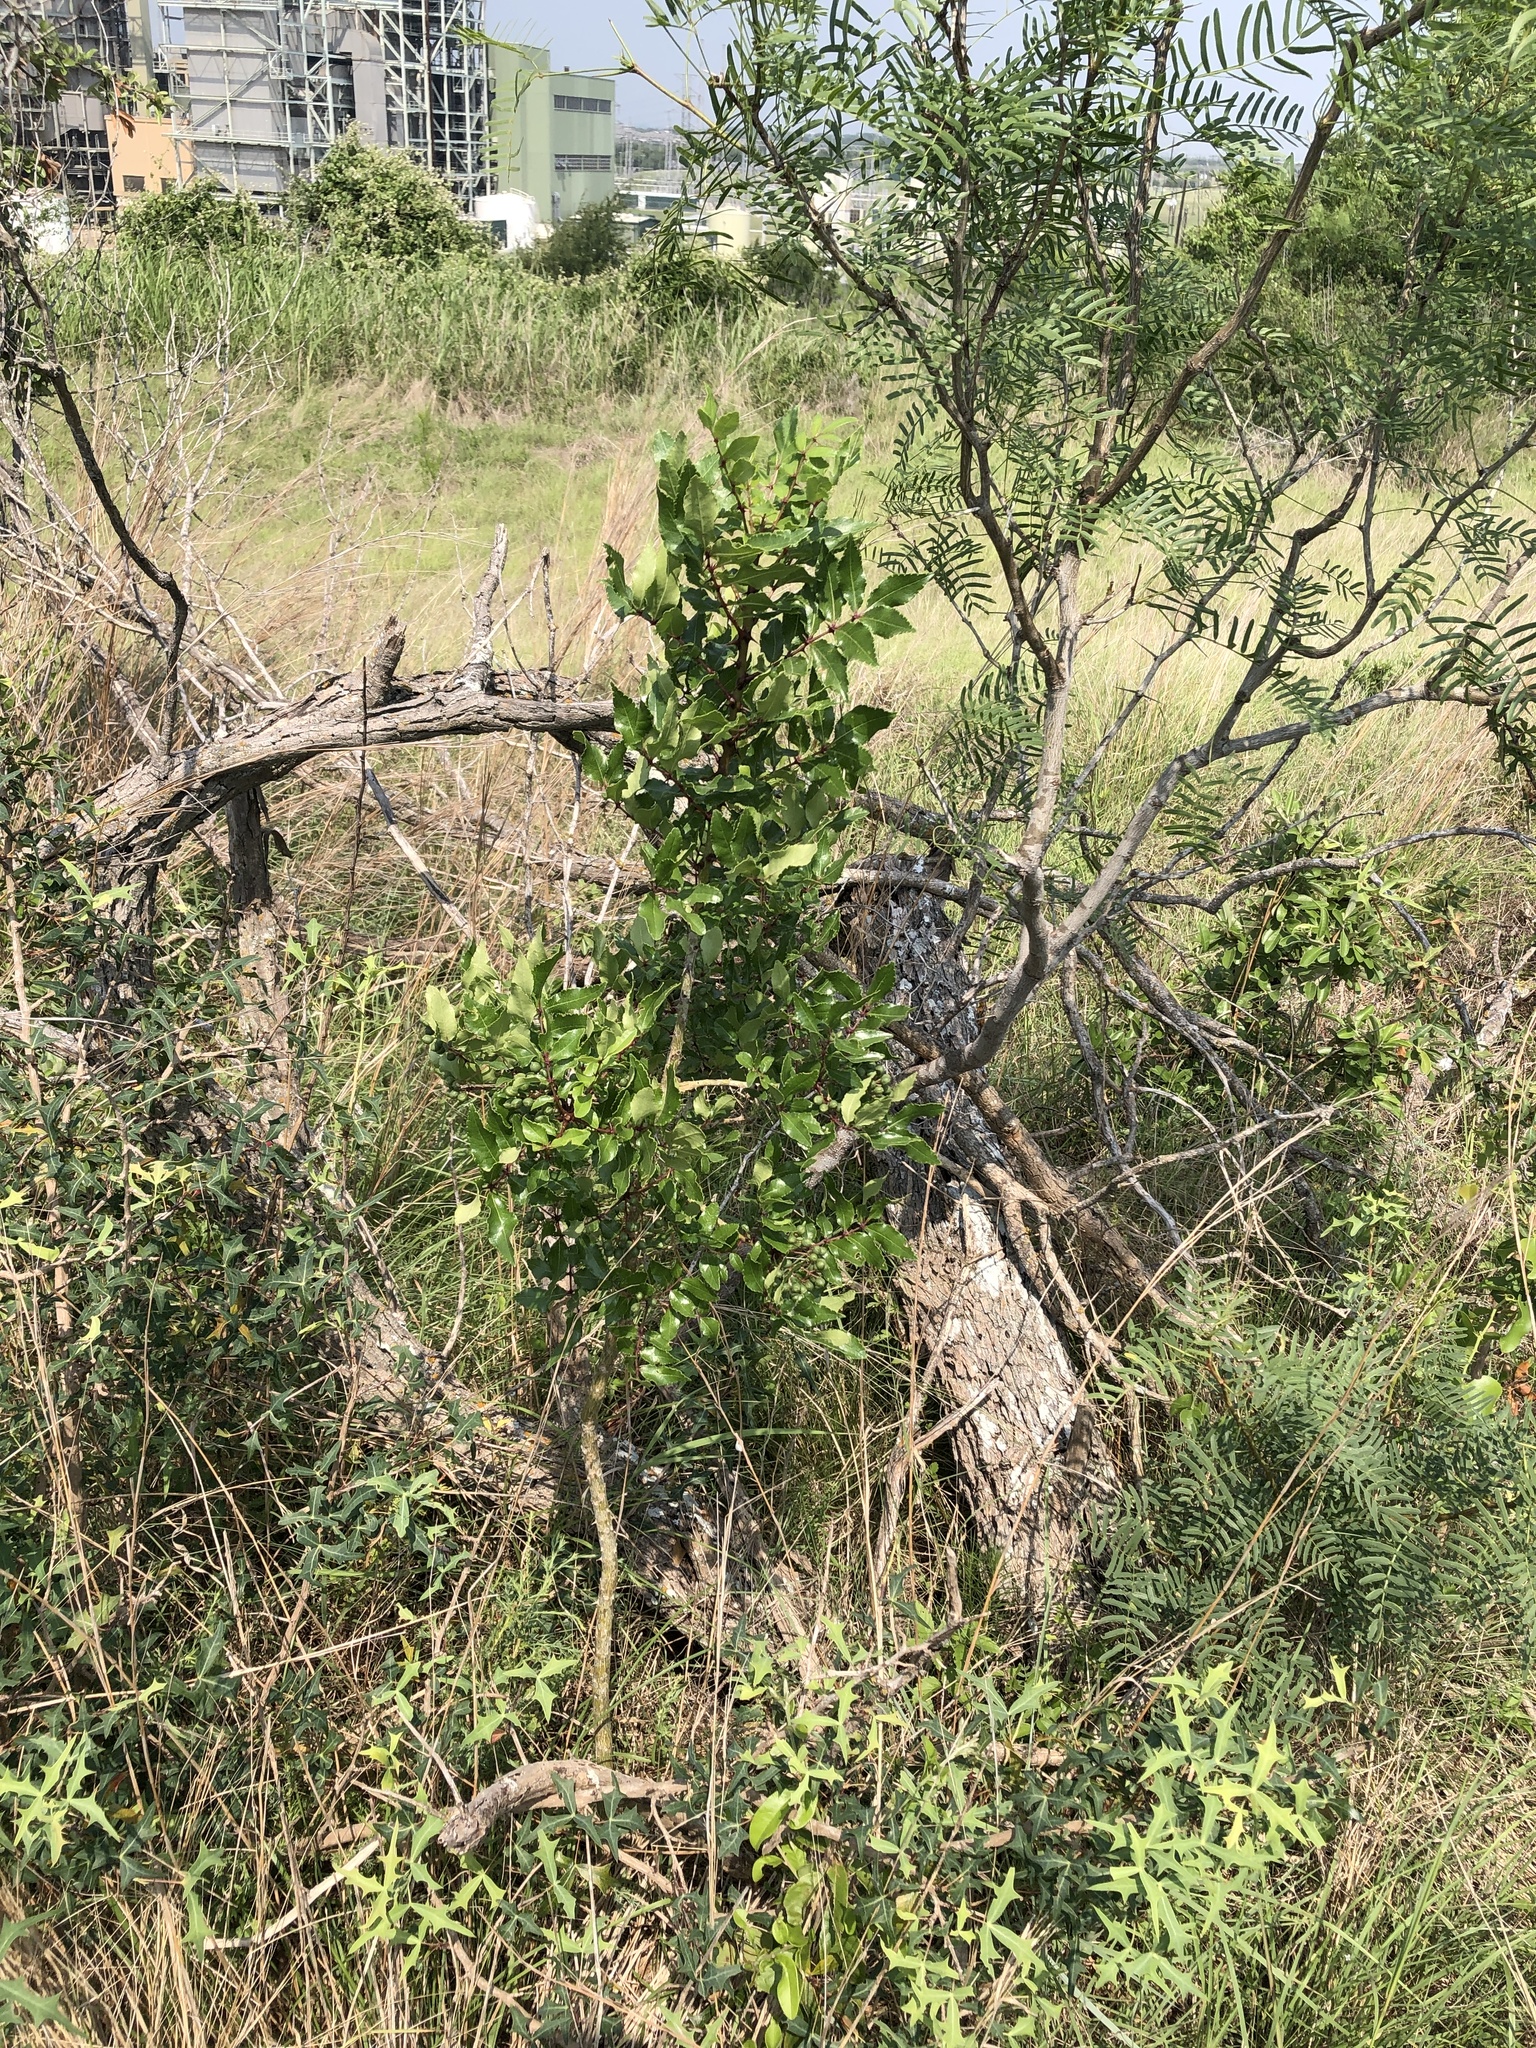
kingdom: Plantae
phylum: Tracheophyta
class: Magnoliopsida
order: Sapindales
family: Rutaceae
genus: Zanthoxylum
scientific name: Zanthoxylum clava-herculis
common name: Hercules'-club
